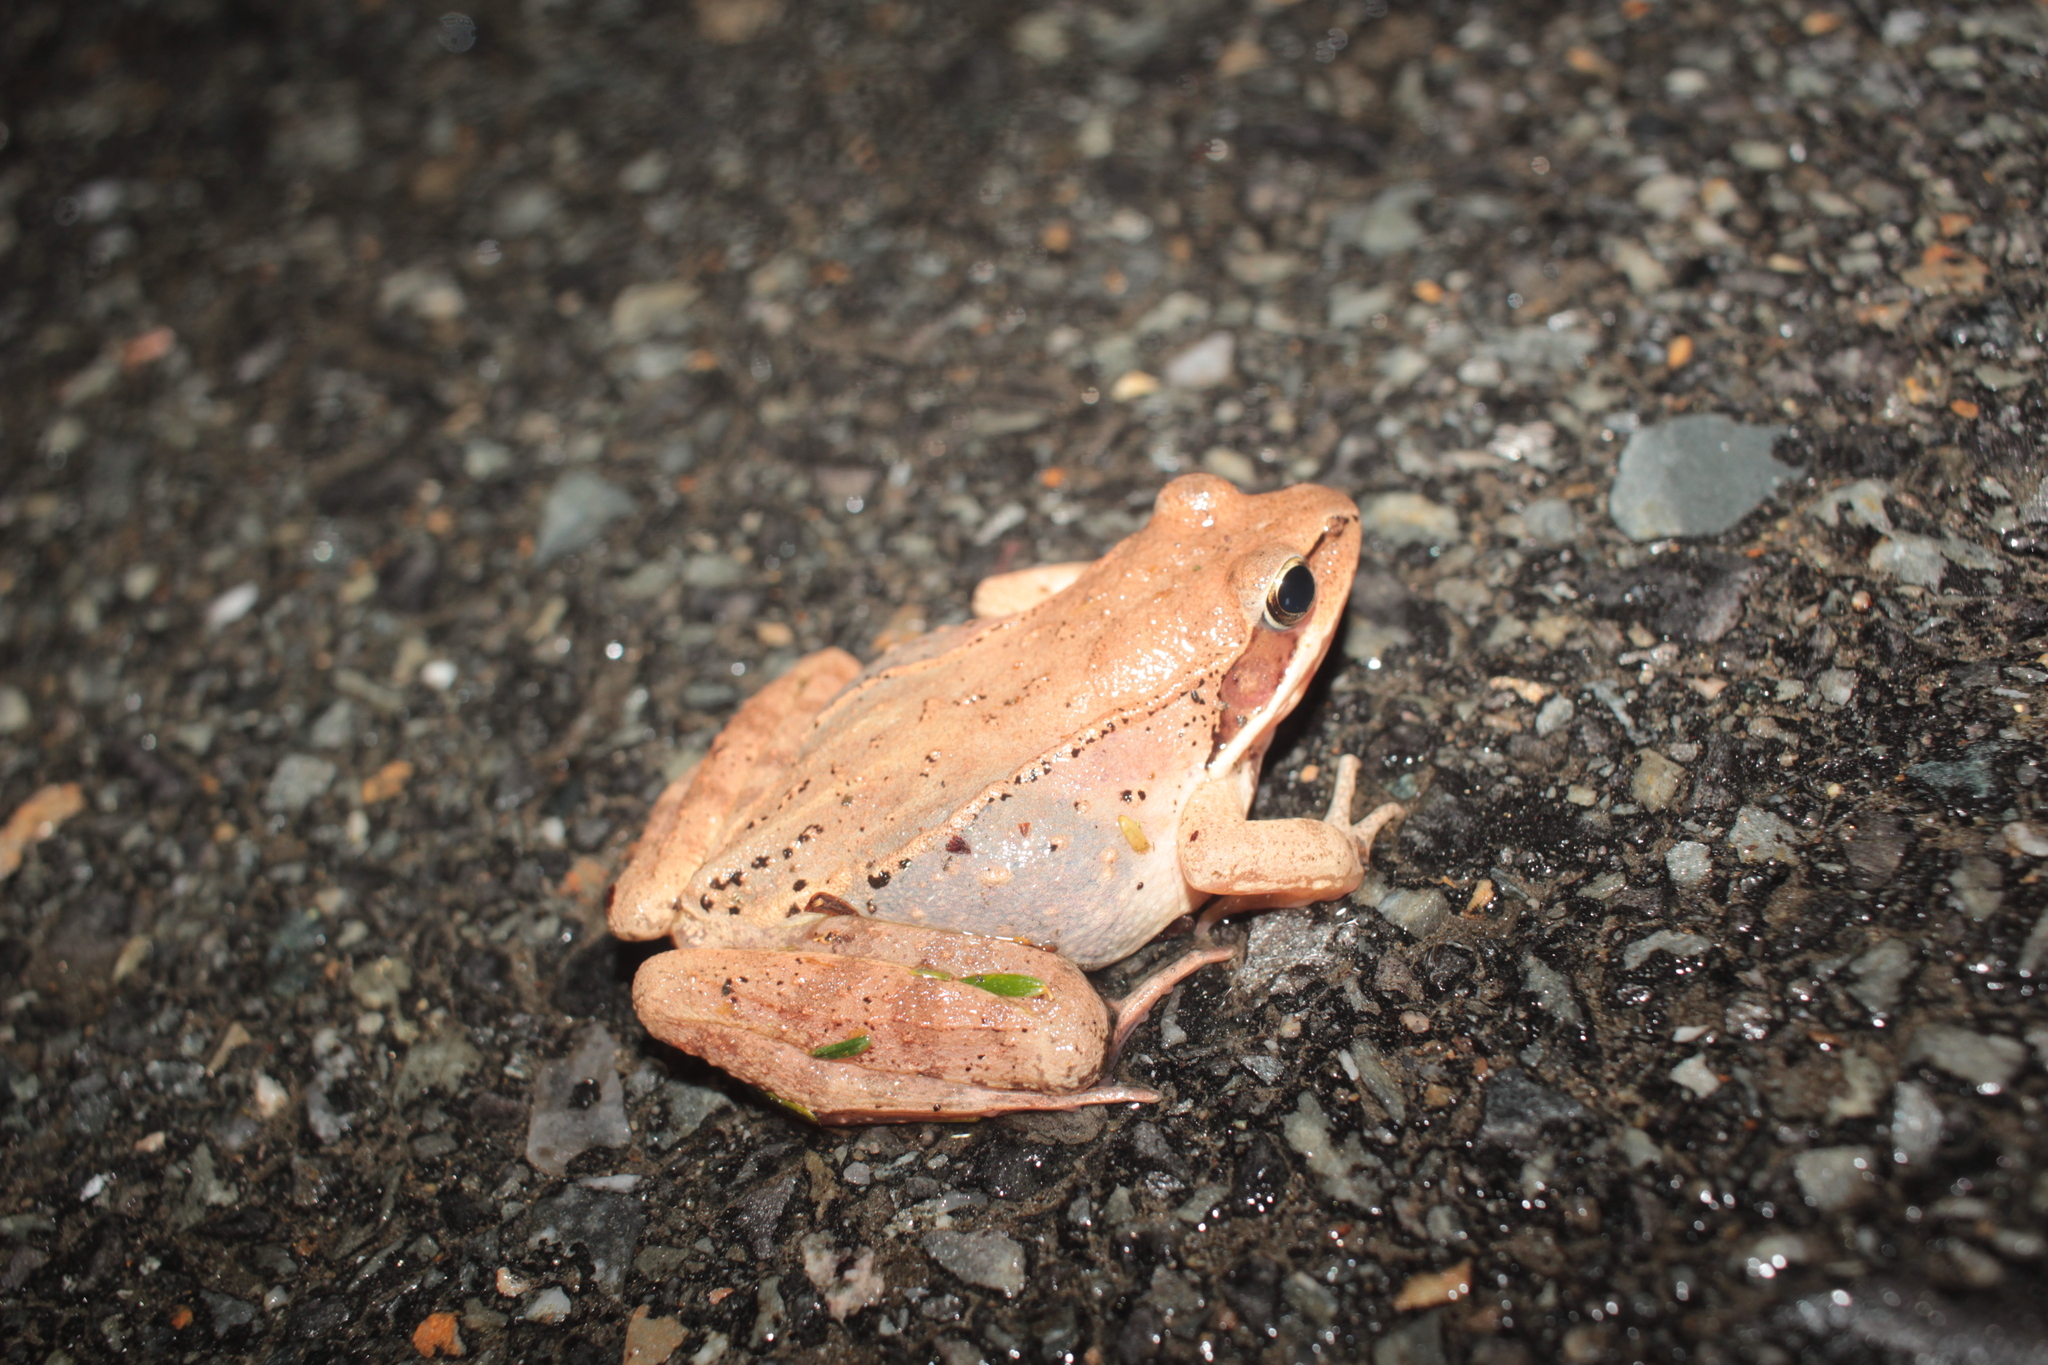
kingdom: Animalia
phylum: Chordata
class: Amphibia
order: Anura
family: Ranidae
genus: Lithobates
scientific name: Lithobates sylvaticus
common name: Wood frog
